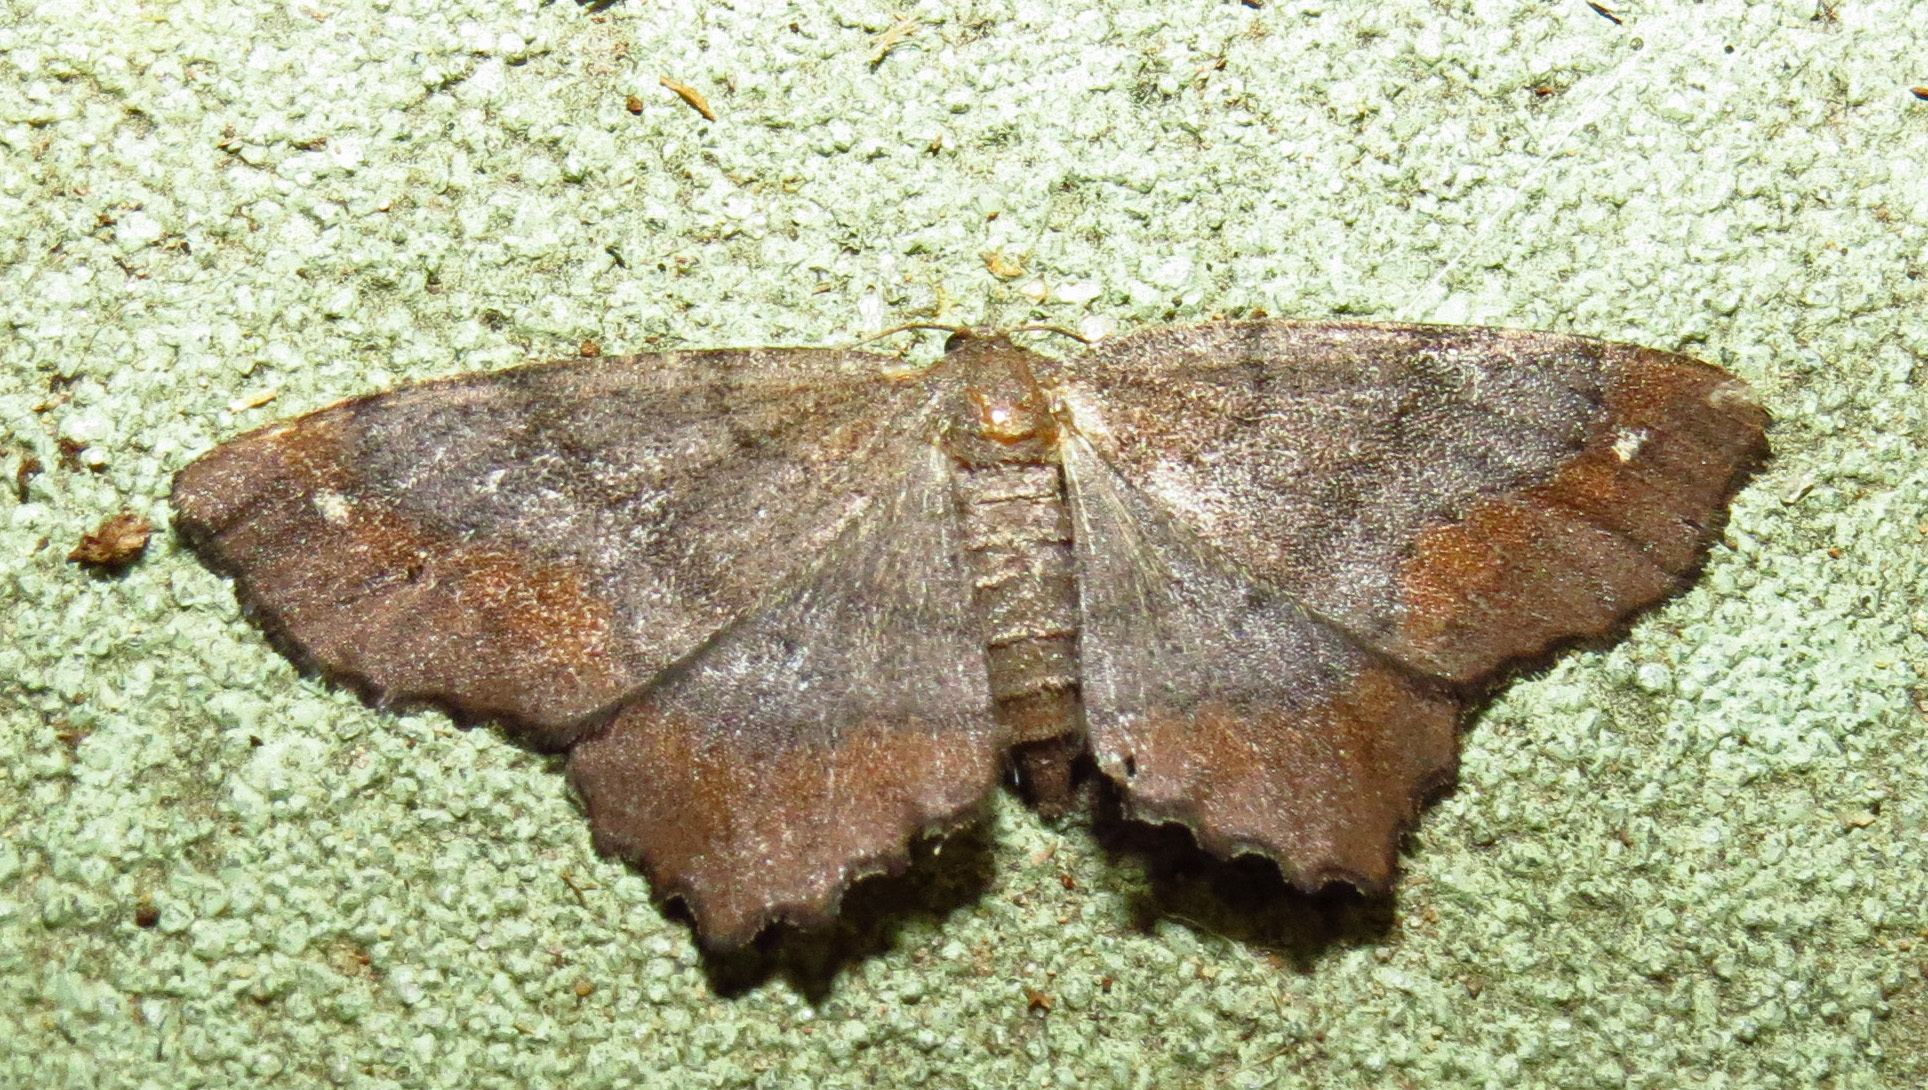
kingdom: Animalia
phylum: Arthropoda
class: Insecta
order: Lepidoptera
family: Geometridae
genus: Hypagyrtis
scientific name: Hypagyrtis unipunctata
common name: One-spotted variant
